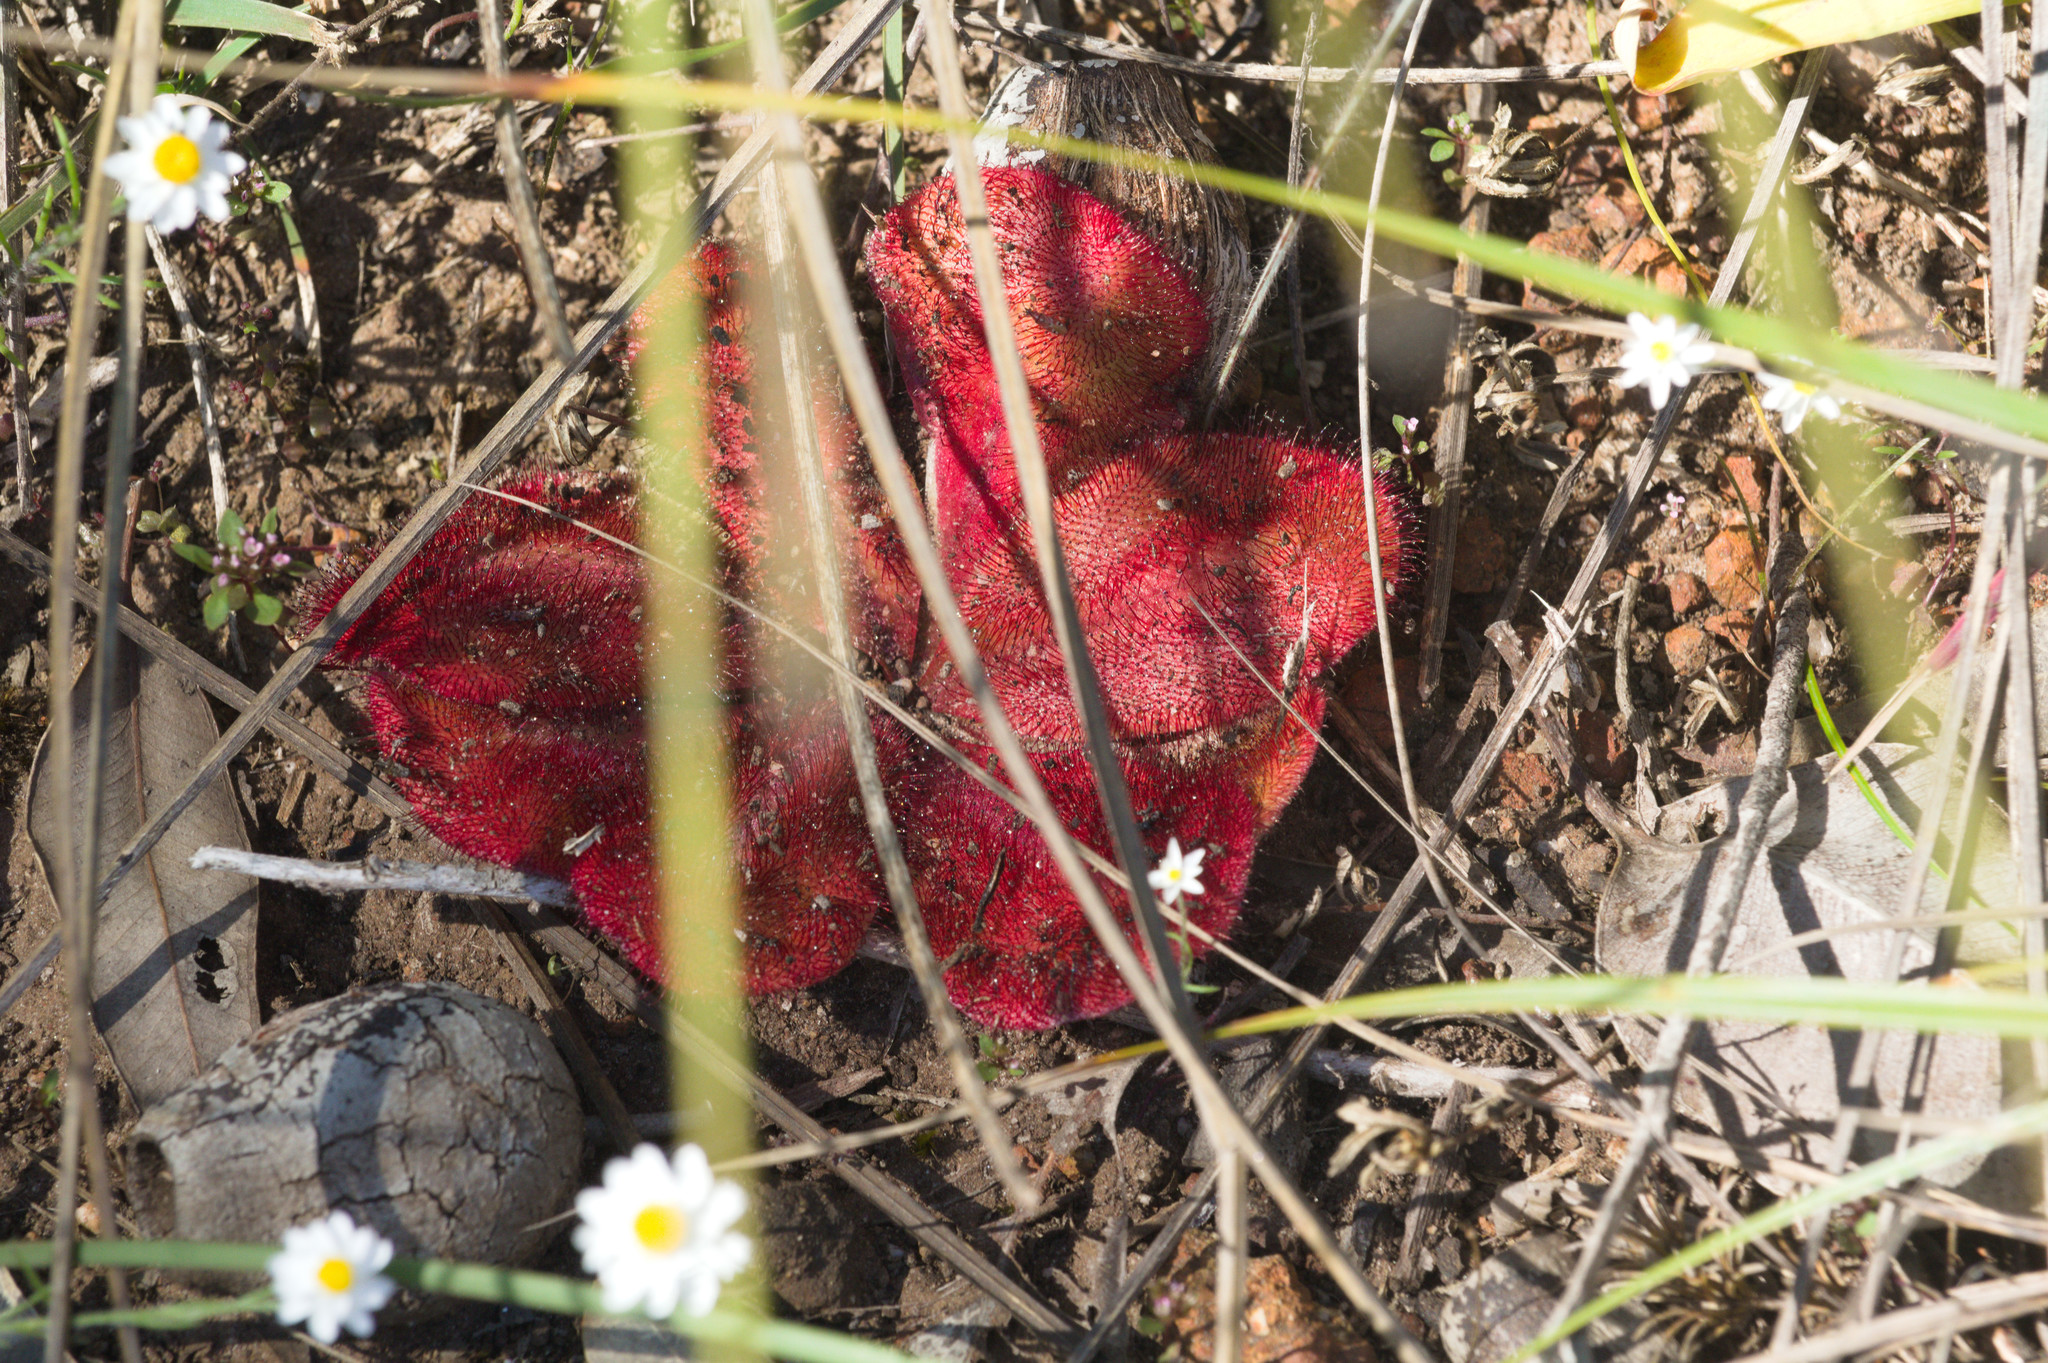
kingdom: Plantae
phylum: Tracheophyta
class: Magnoliopsida
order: Caryophyllales
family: Droseraceae
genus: Drosera
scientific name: Drosera erythrorhiza
